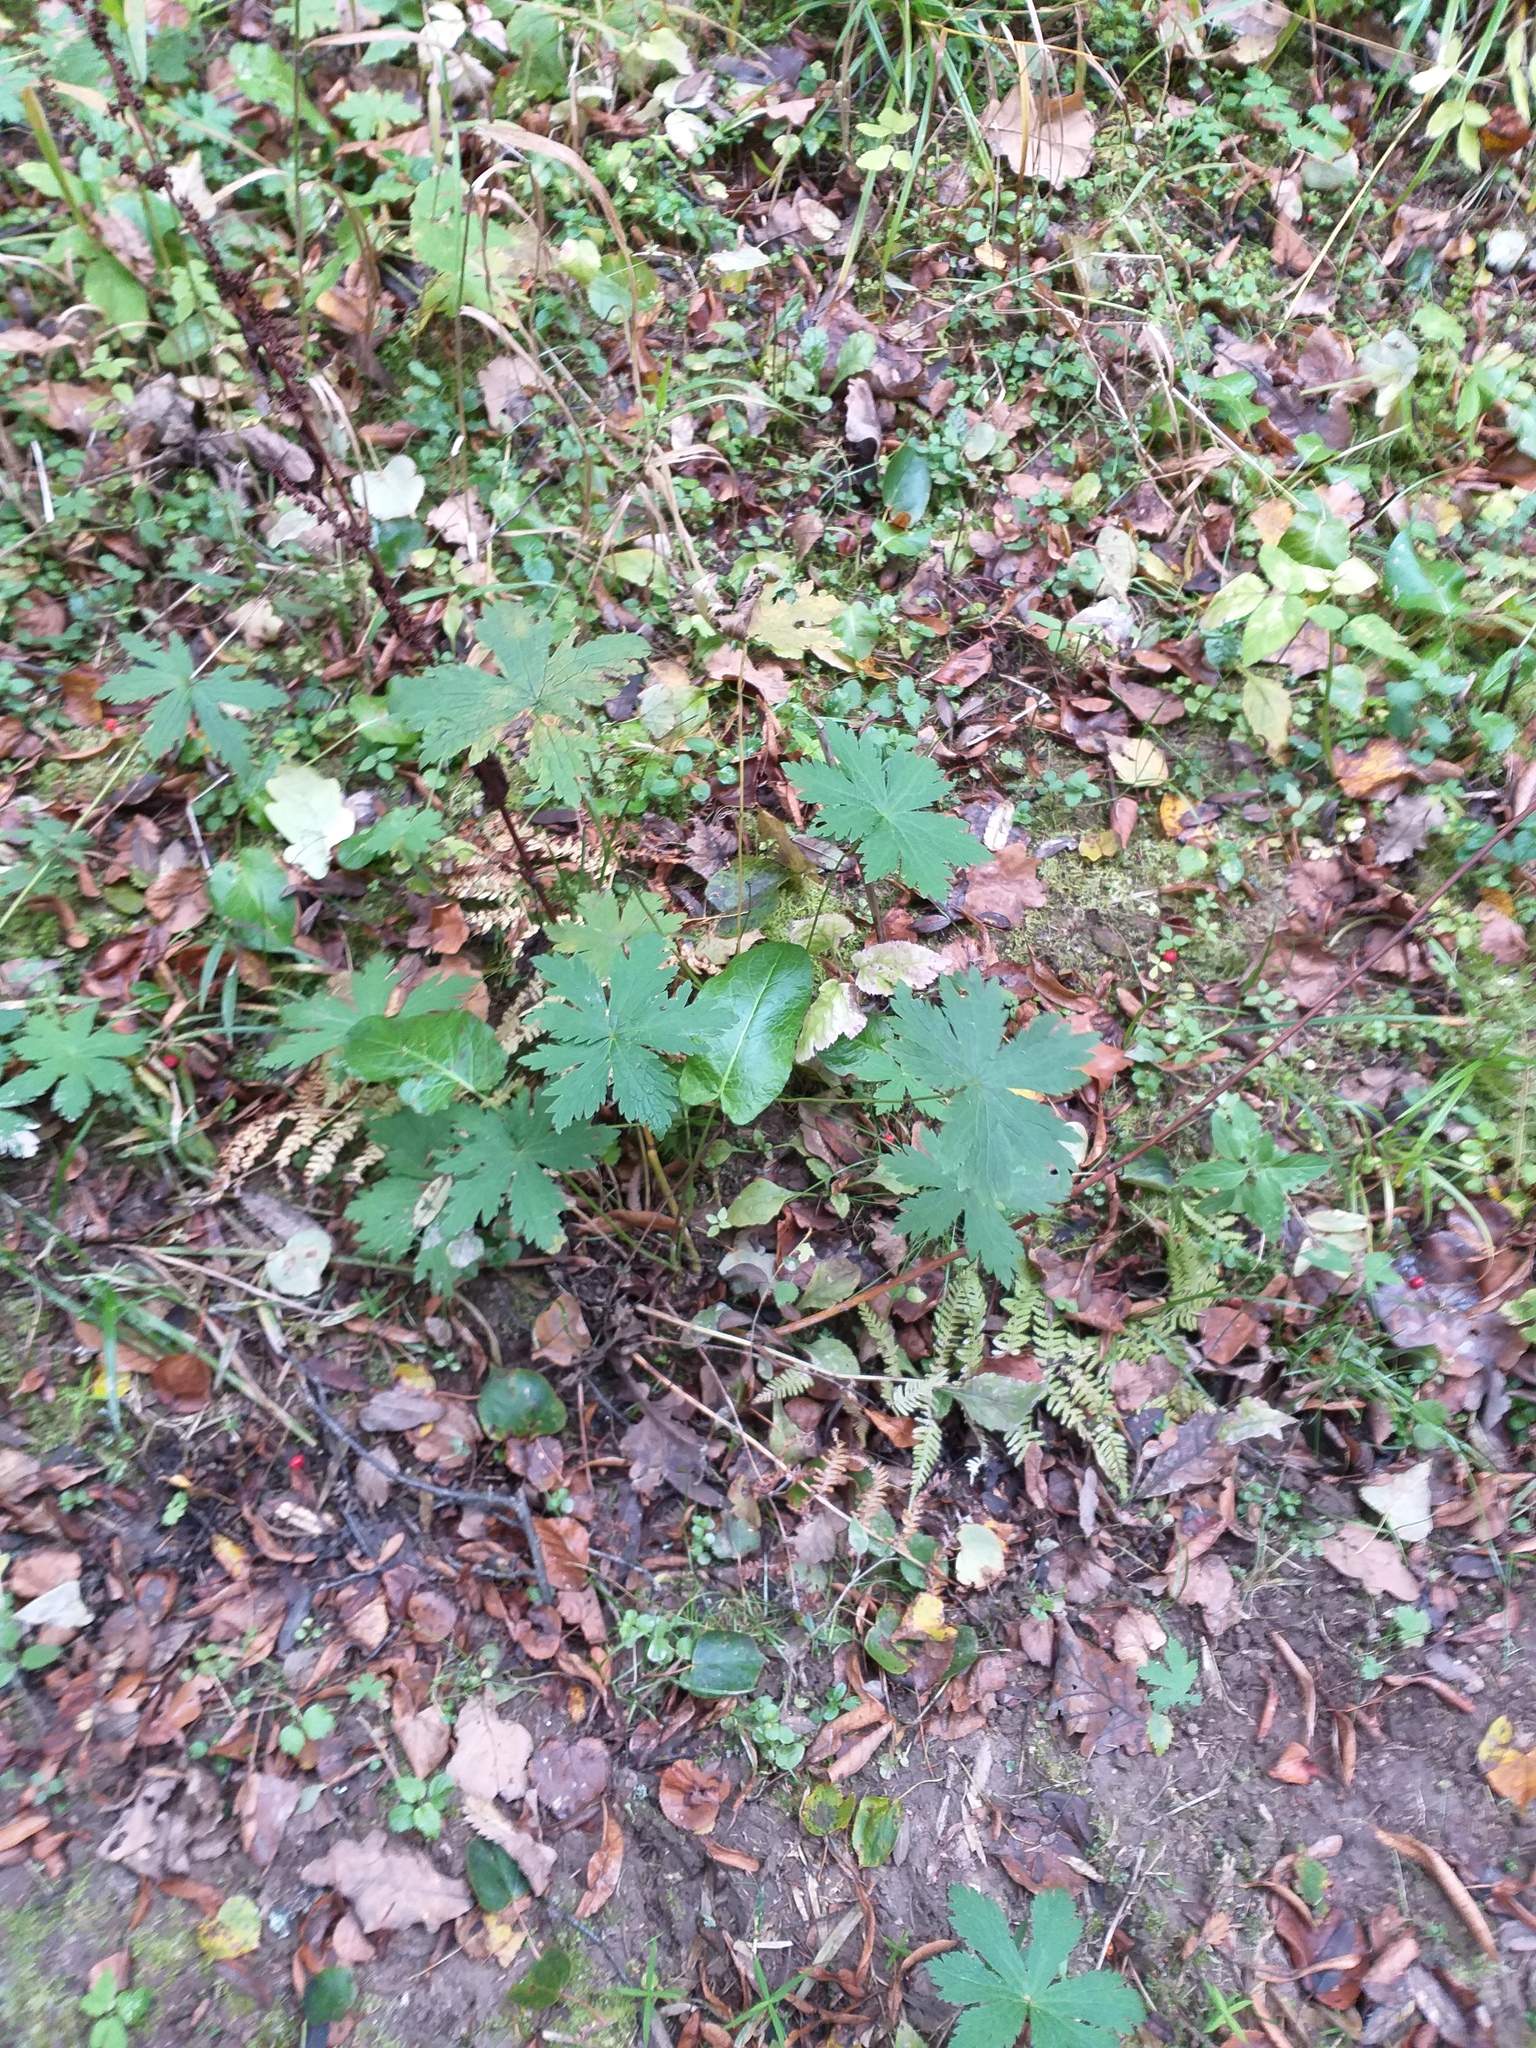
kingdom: Plantae
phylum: Tracheophyta
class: Magnoliopsida
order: Geraniales
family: Geraniaceae
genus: Geranium
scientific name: Geranium sylvaticum
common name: Wood crane's-bill
